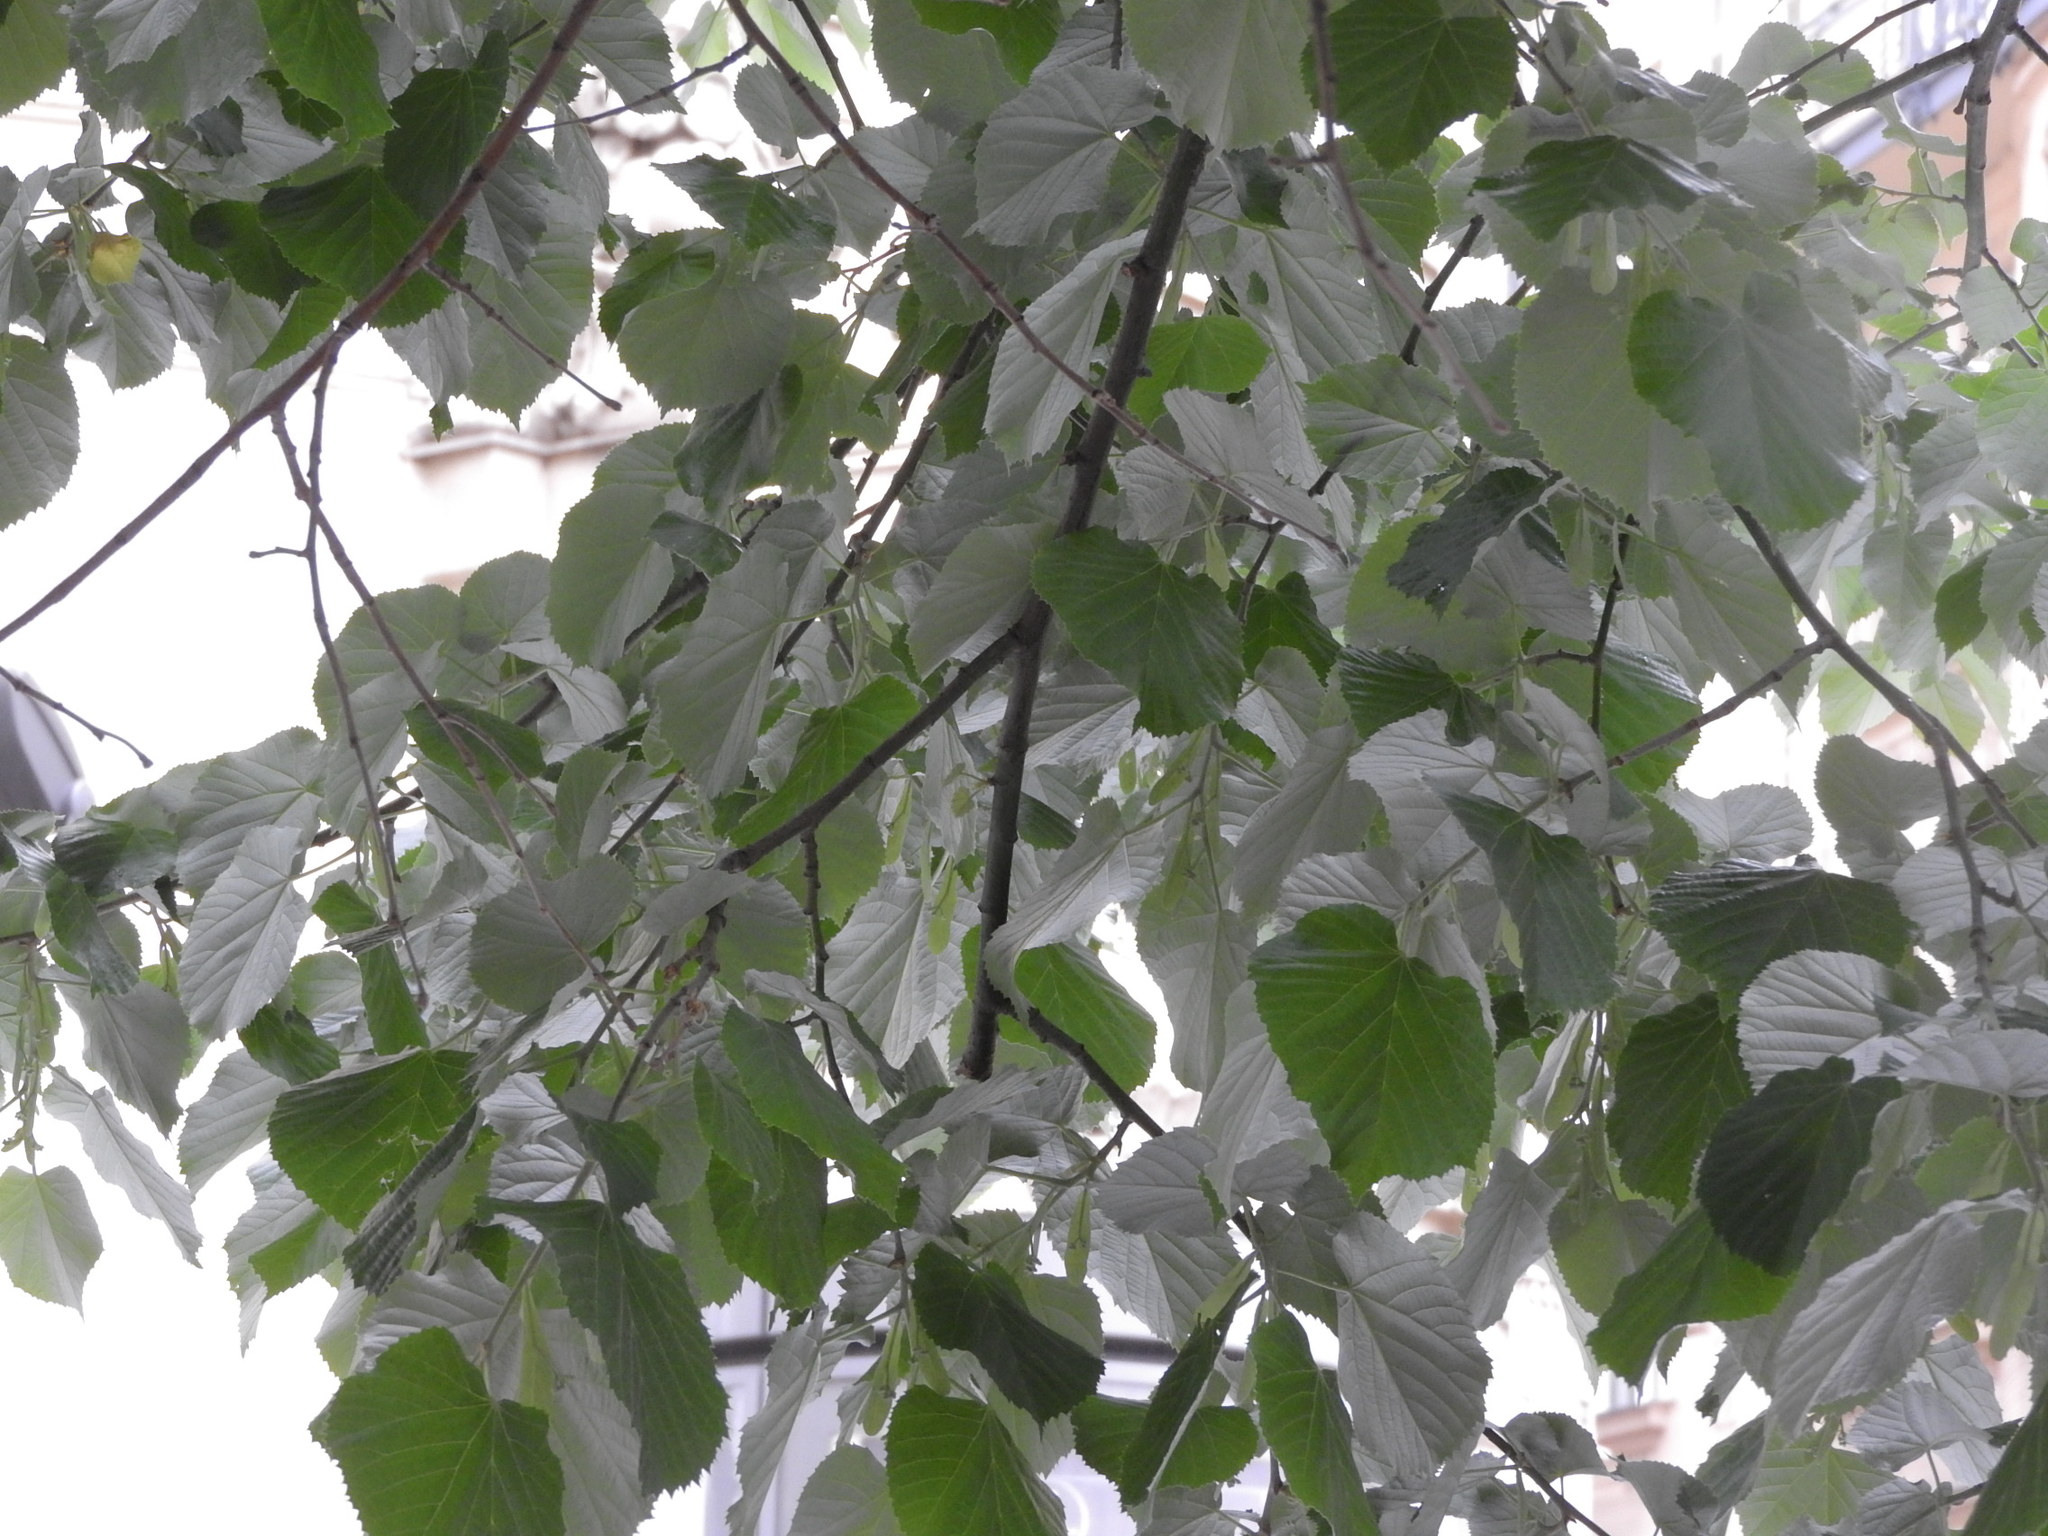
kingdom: Plantae
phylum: Tracheophyta
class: Magnoliopsida
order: Malvales
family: Malvaceae
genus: Tilia
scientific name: Tilia tomentosa
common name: Silver lime
